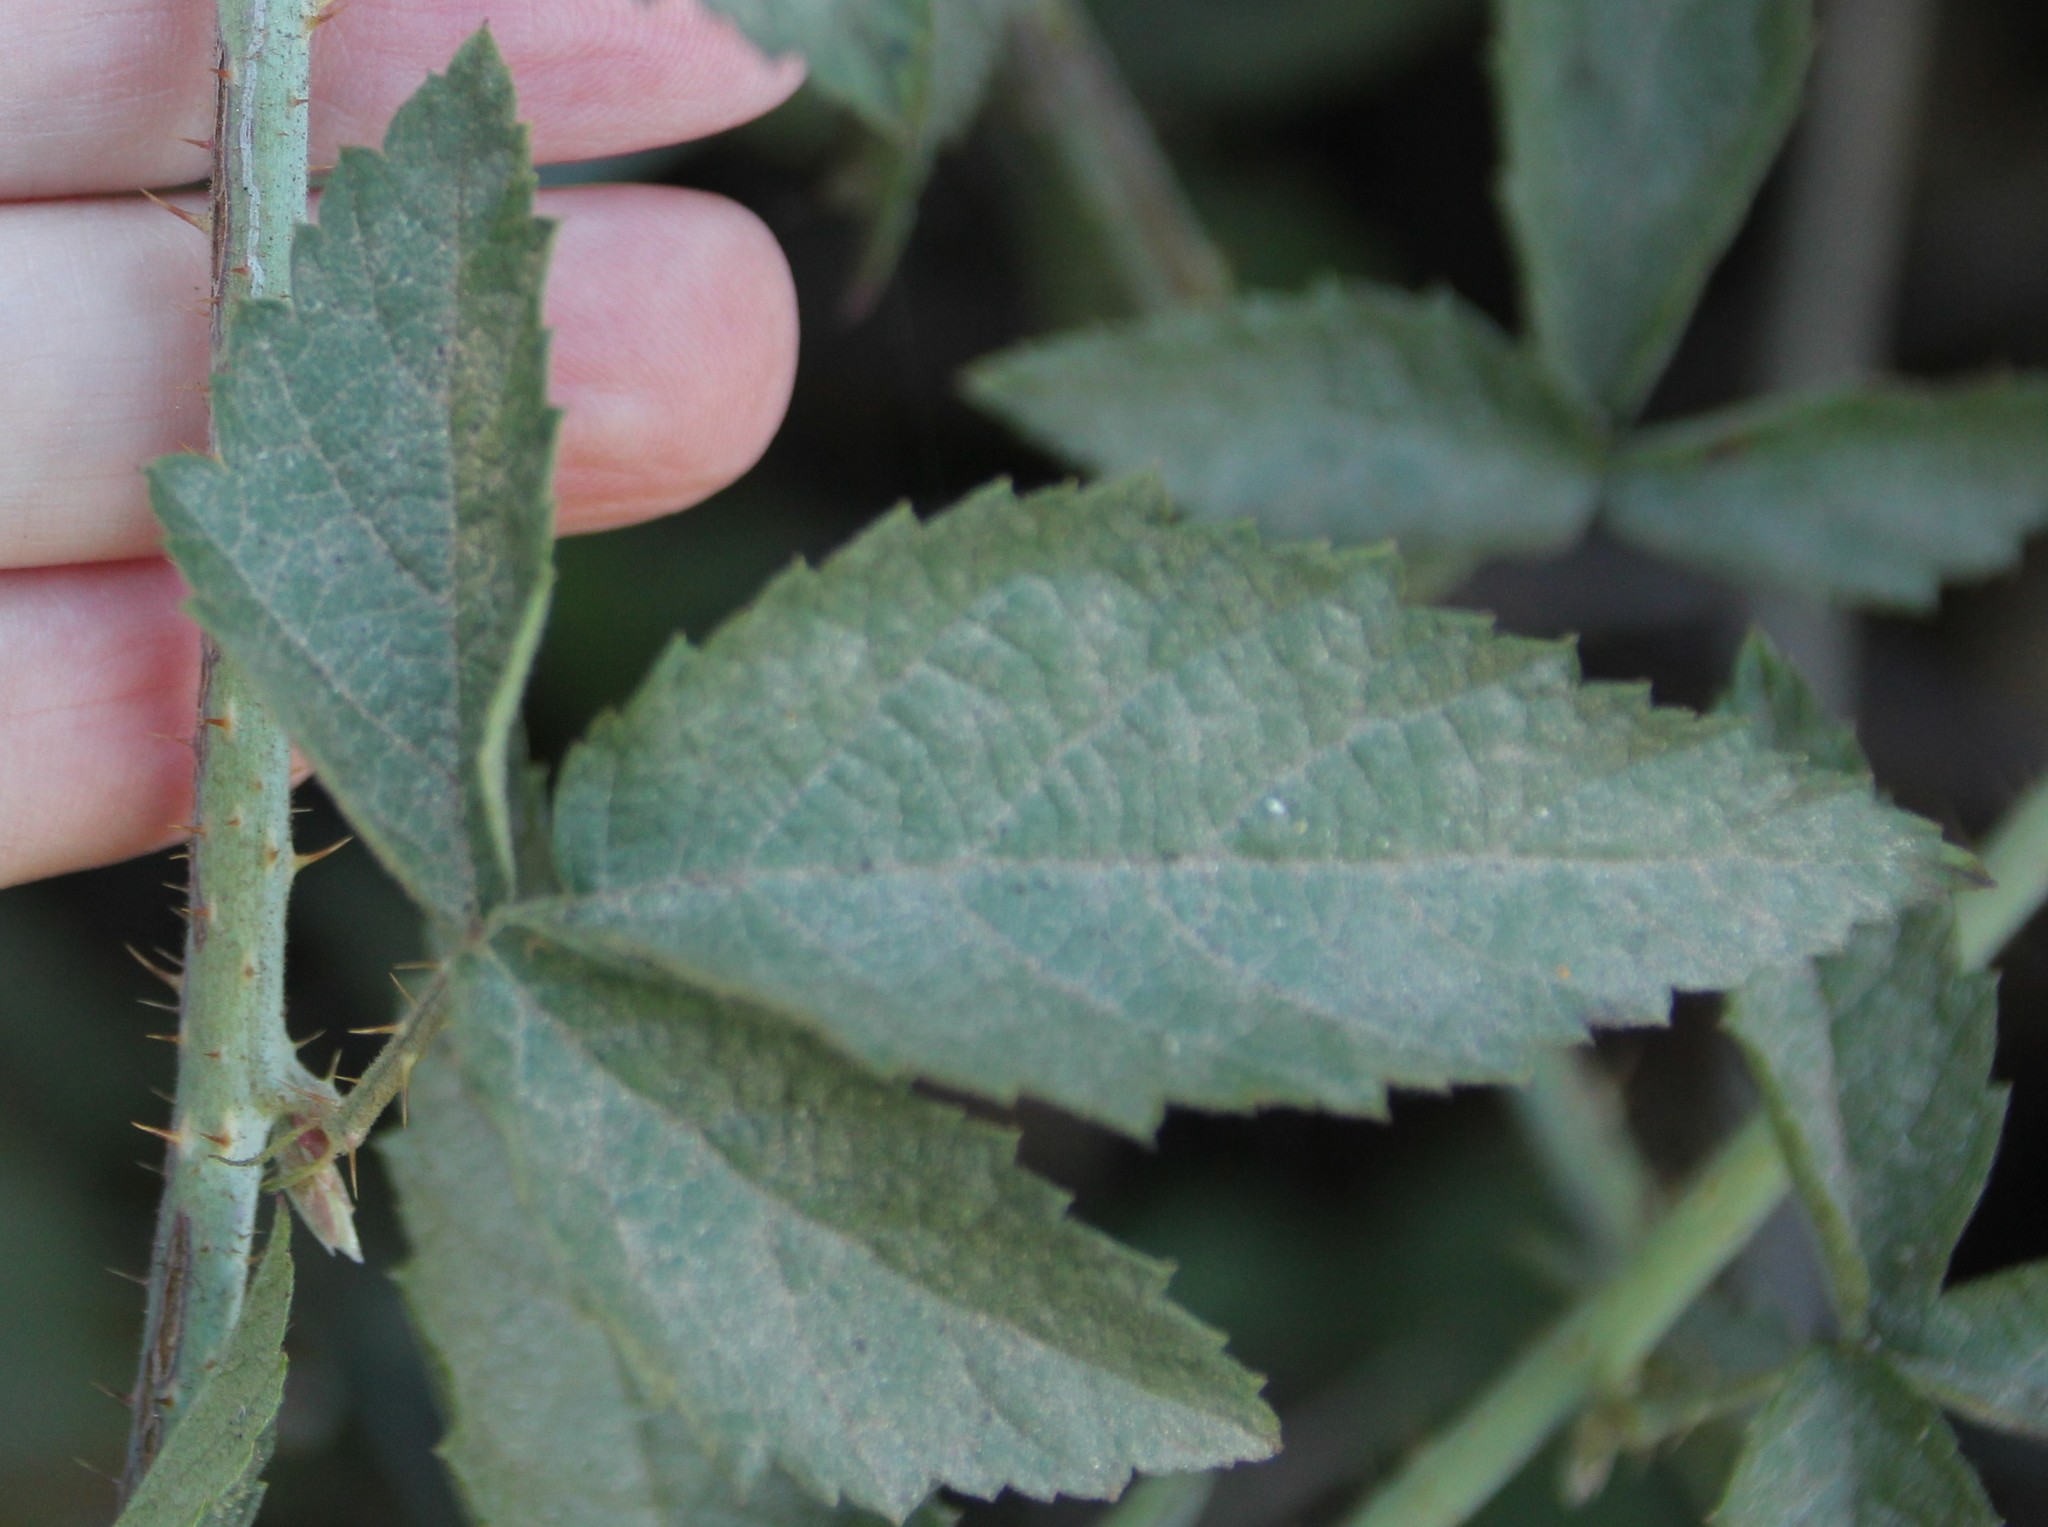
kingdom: Plantae
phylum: Tracheophyta
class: Magnoliopsida
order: Rosales
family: Rosaceae
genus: Rubus
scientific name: Rubus ursinus
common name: Pacific blackberry
